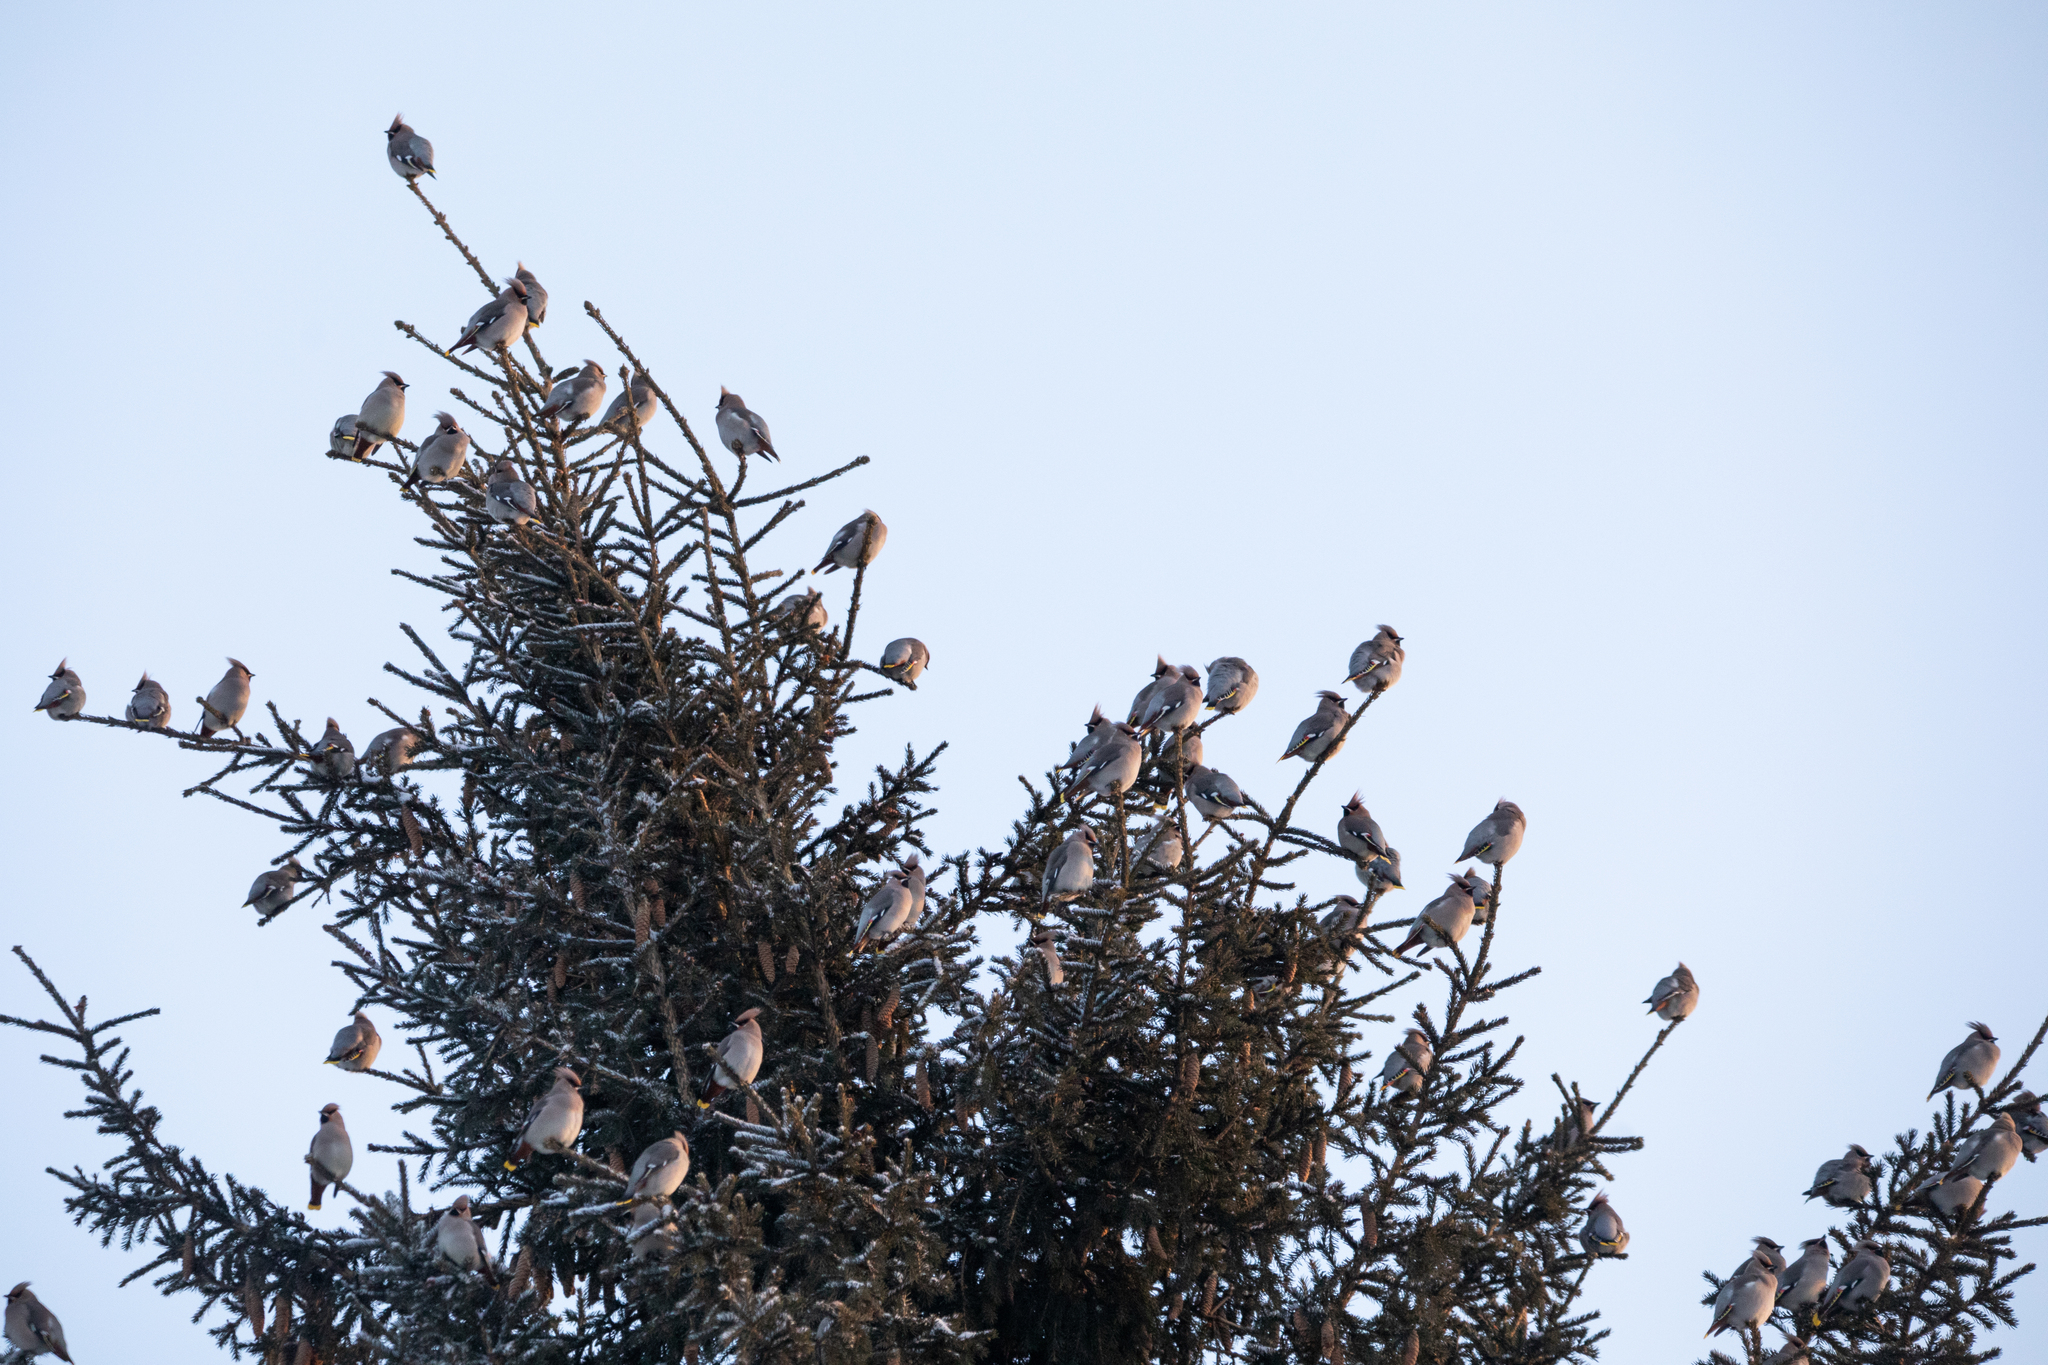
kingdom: Animalia
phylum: Chordata
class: Aves
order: Passeriformes
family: Bombycillidae
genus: Bombycilla
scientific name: Bombycilla garrulus
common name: Bohemian waxwing
